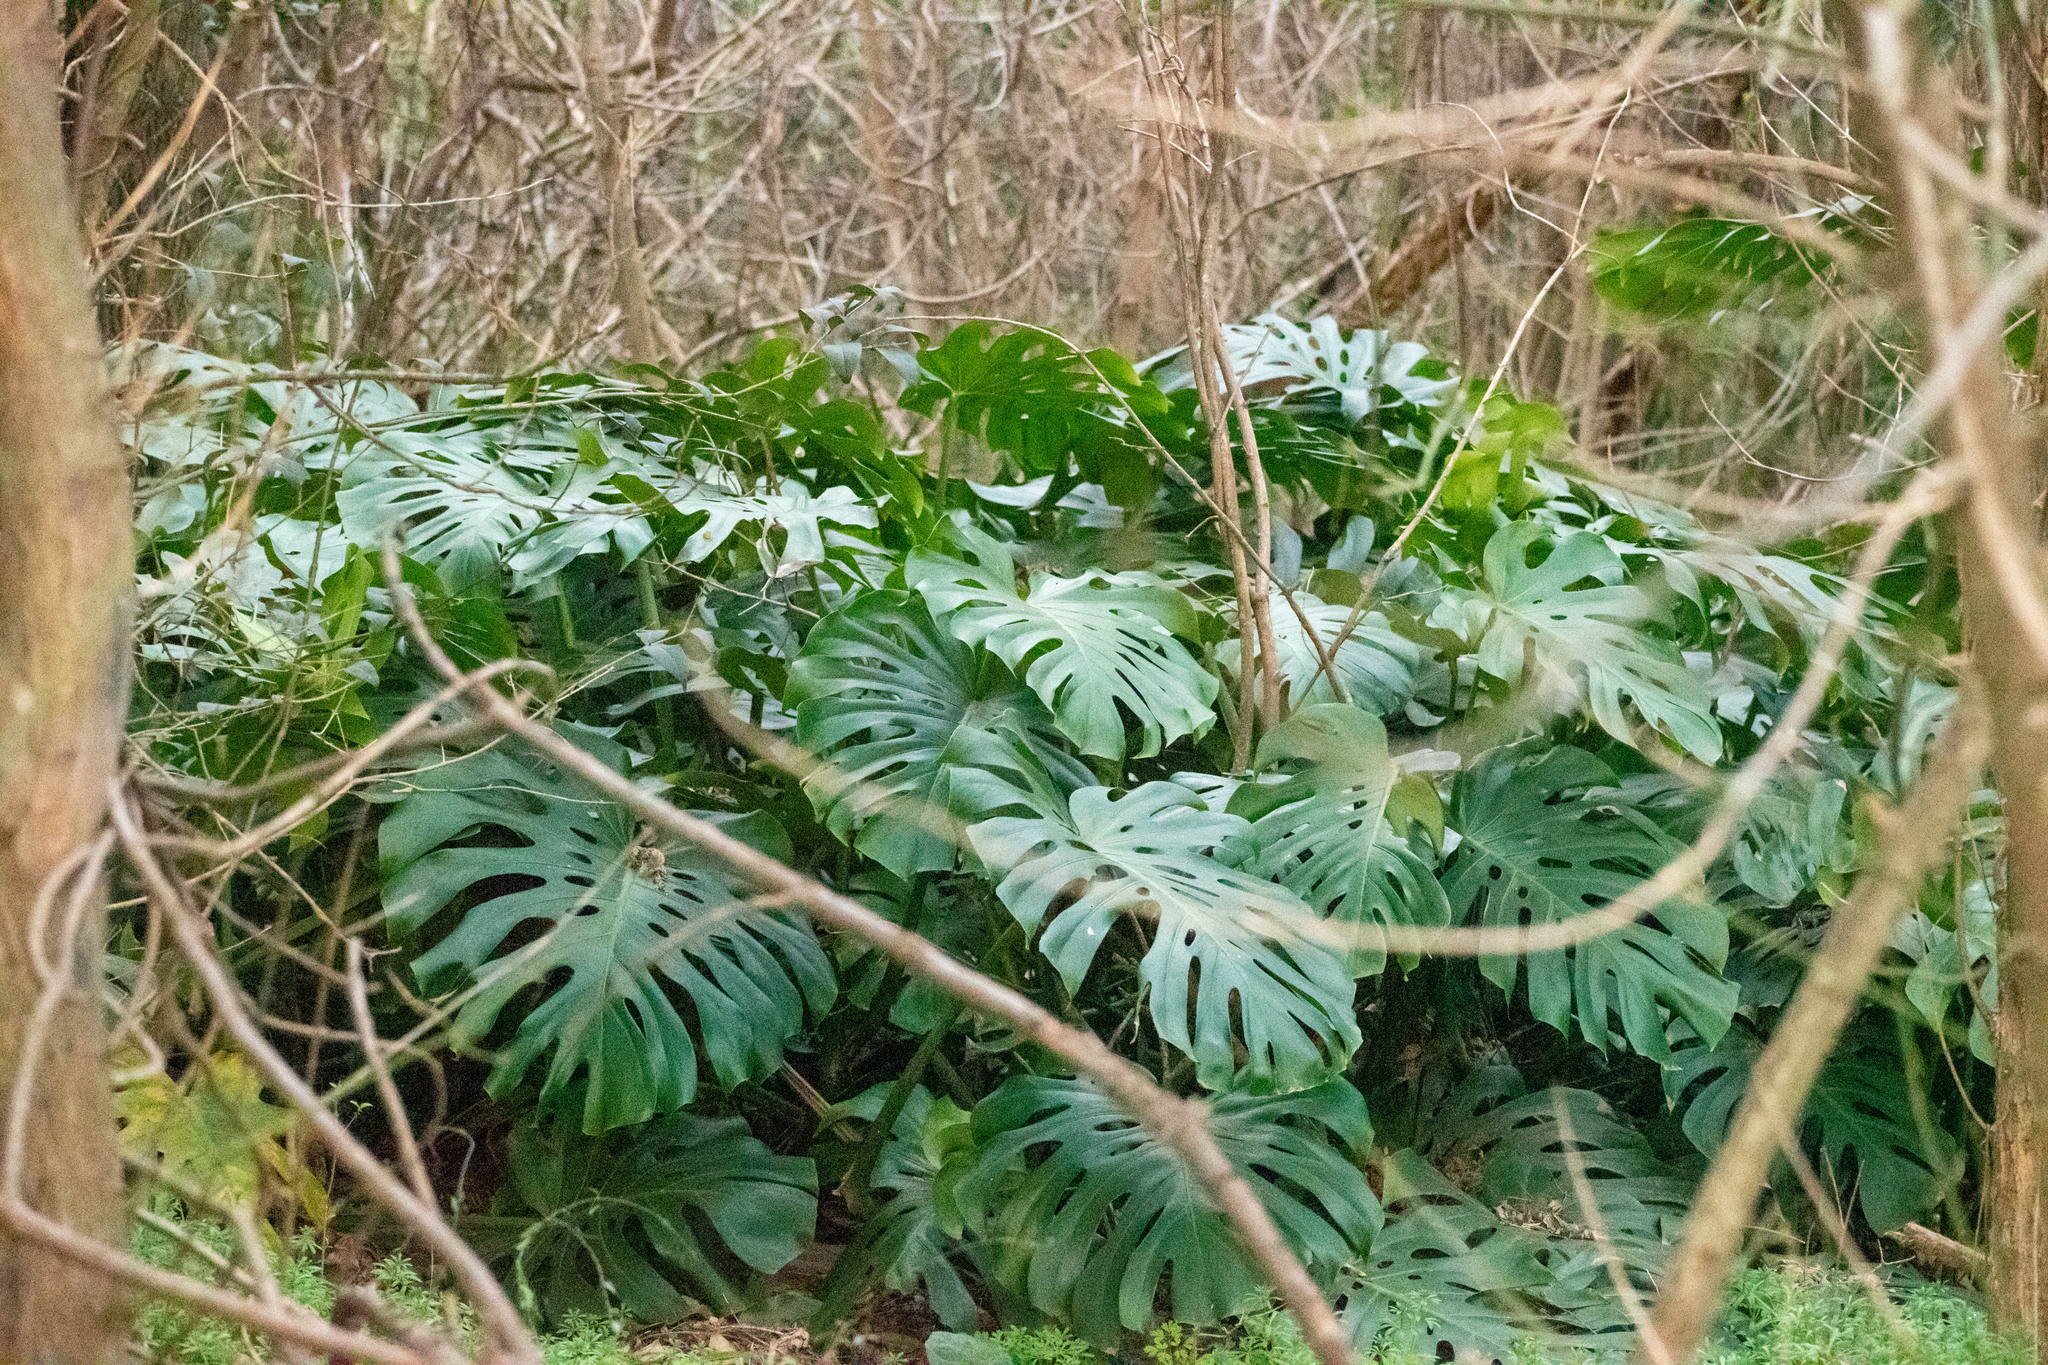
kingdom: Plantae
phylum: Tracheophyta
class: Liliopsida
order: Alismatales
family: Araceae
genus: Monstera
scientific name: Monstera deliciosa
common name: Cut-leaf-philodendron
